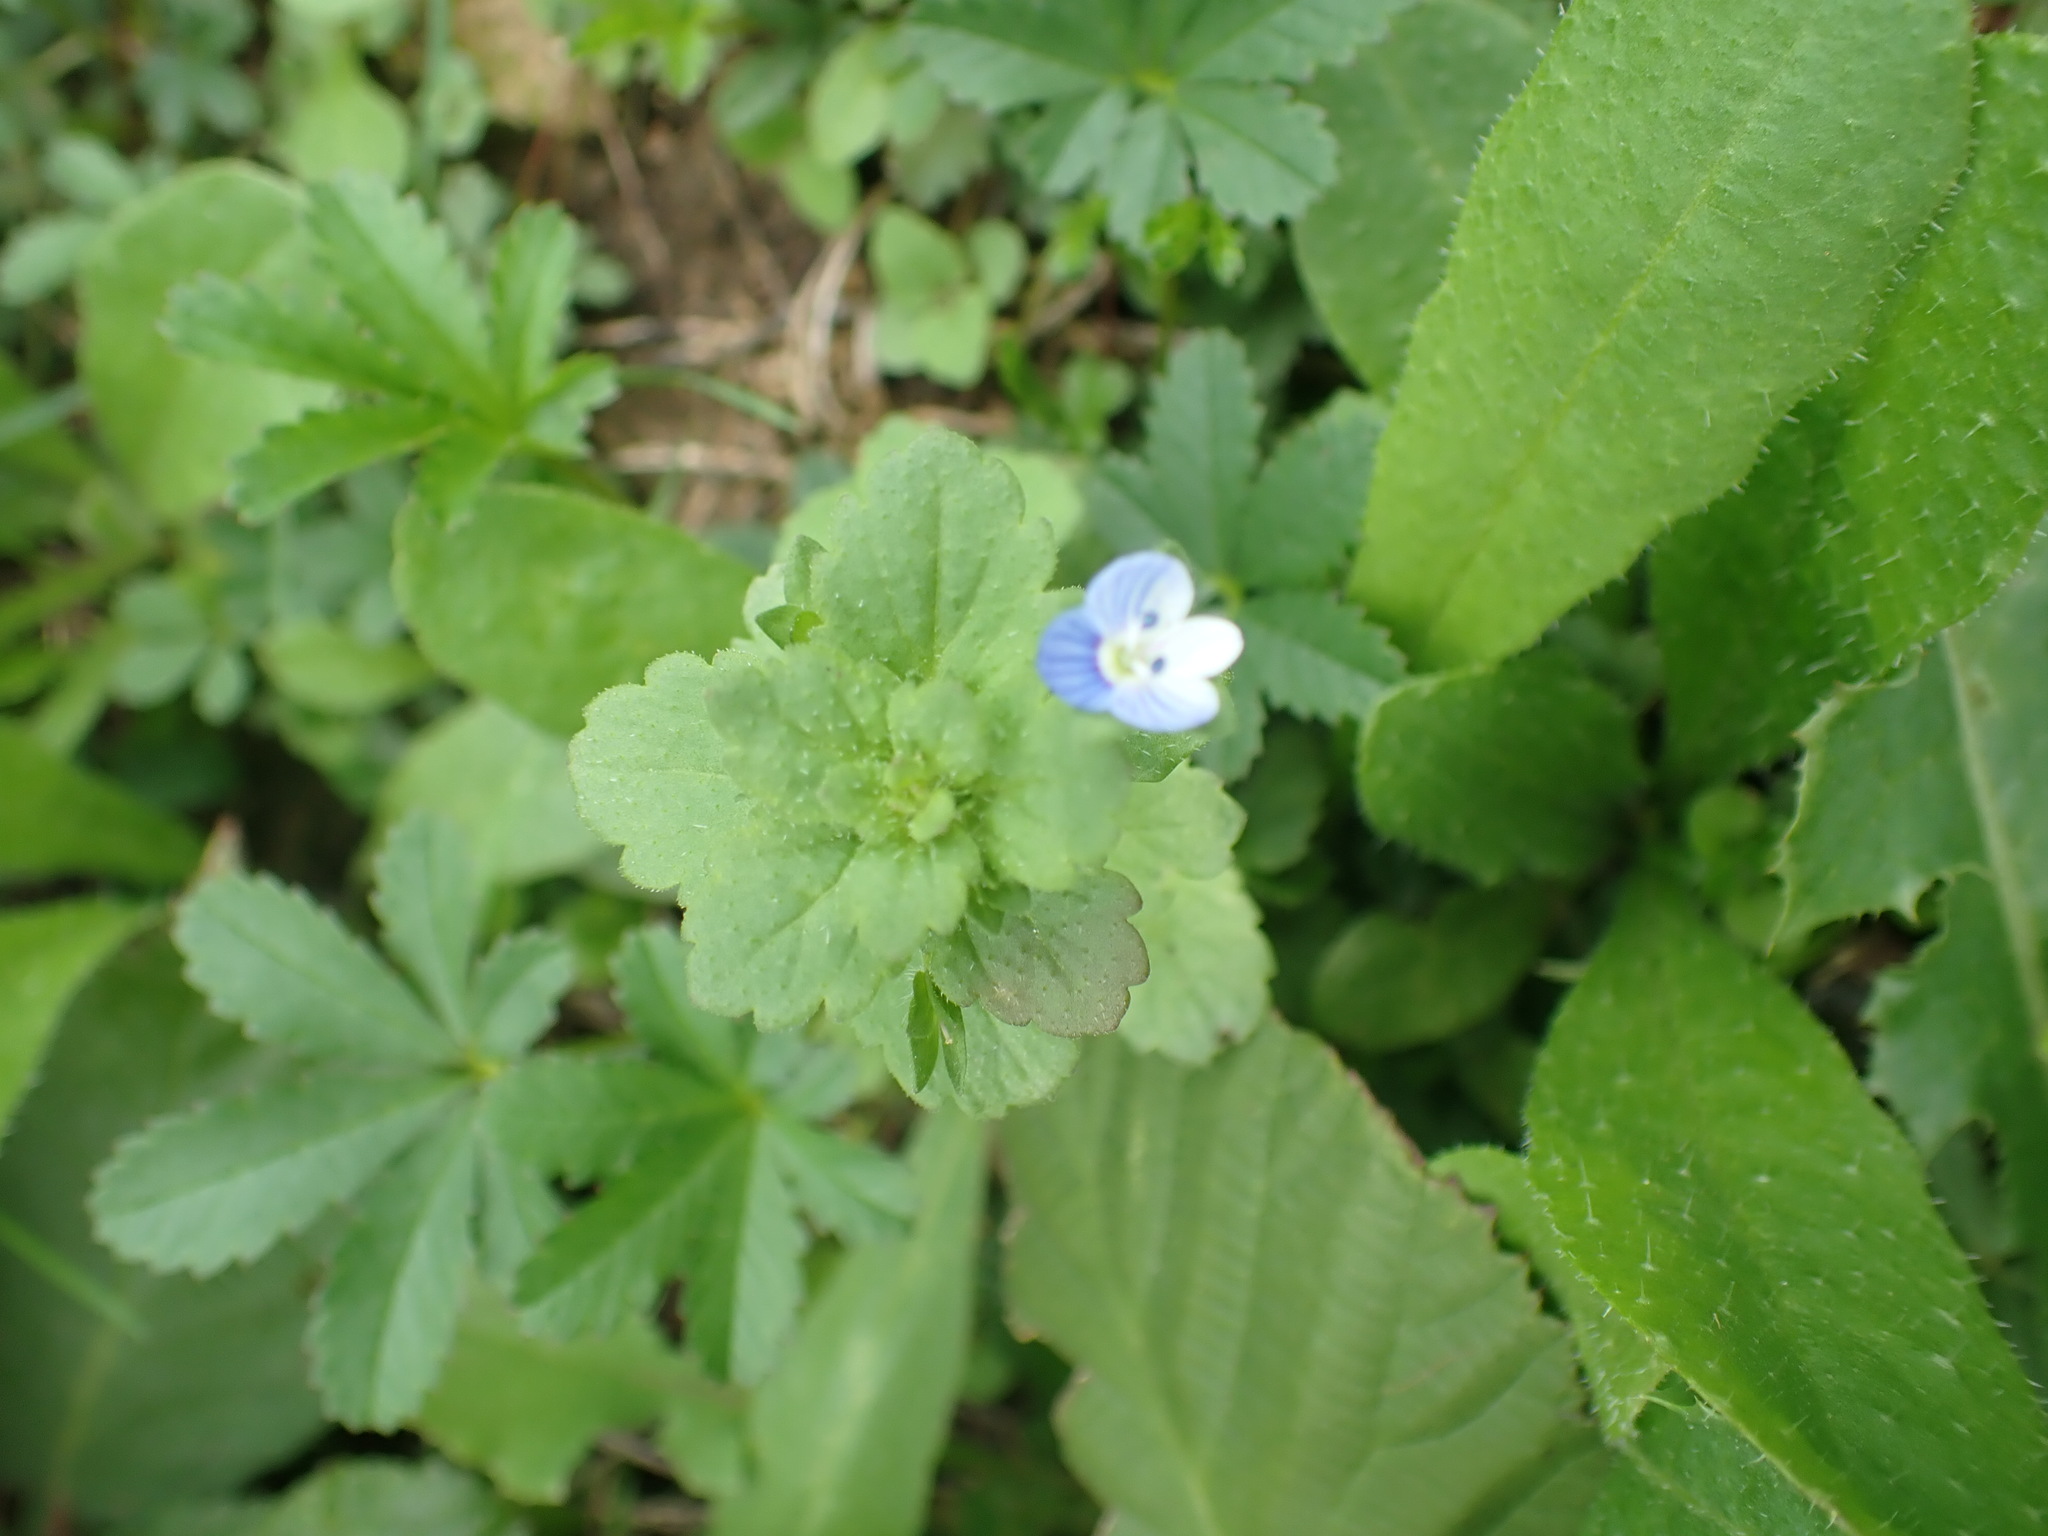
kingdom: Plantae
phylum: Tracheophyta
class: Magnoliopsida
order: Lamiales
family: Plantaginaceae
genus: Veronica
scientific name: Veronica persica
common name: Common field-speedwell
